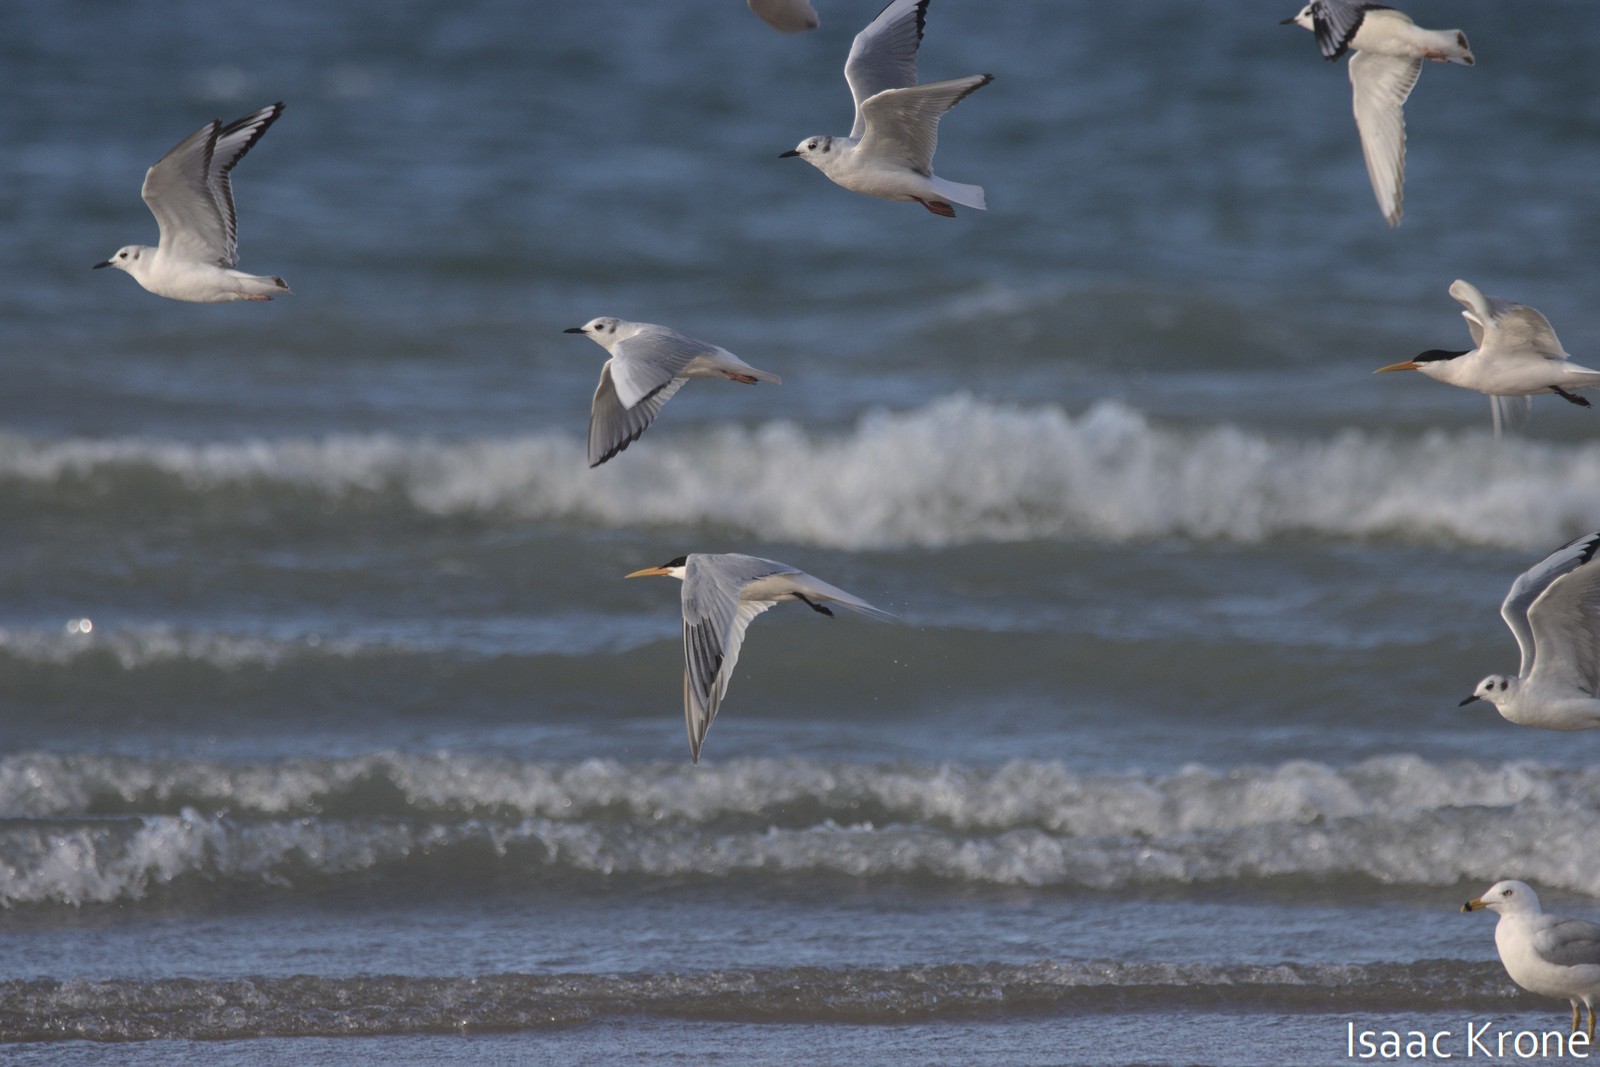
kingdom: Animalia
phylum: Chordata
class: Aves
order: Charadriiformes
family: Laridae
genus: Thalasseus
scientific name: Thalasseus elegans
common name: Elegant tern
